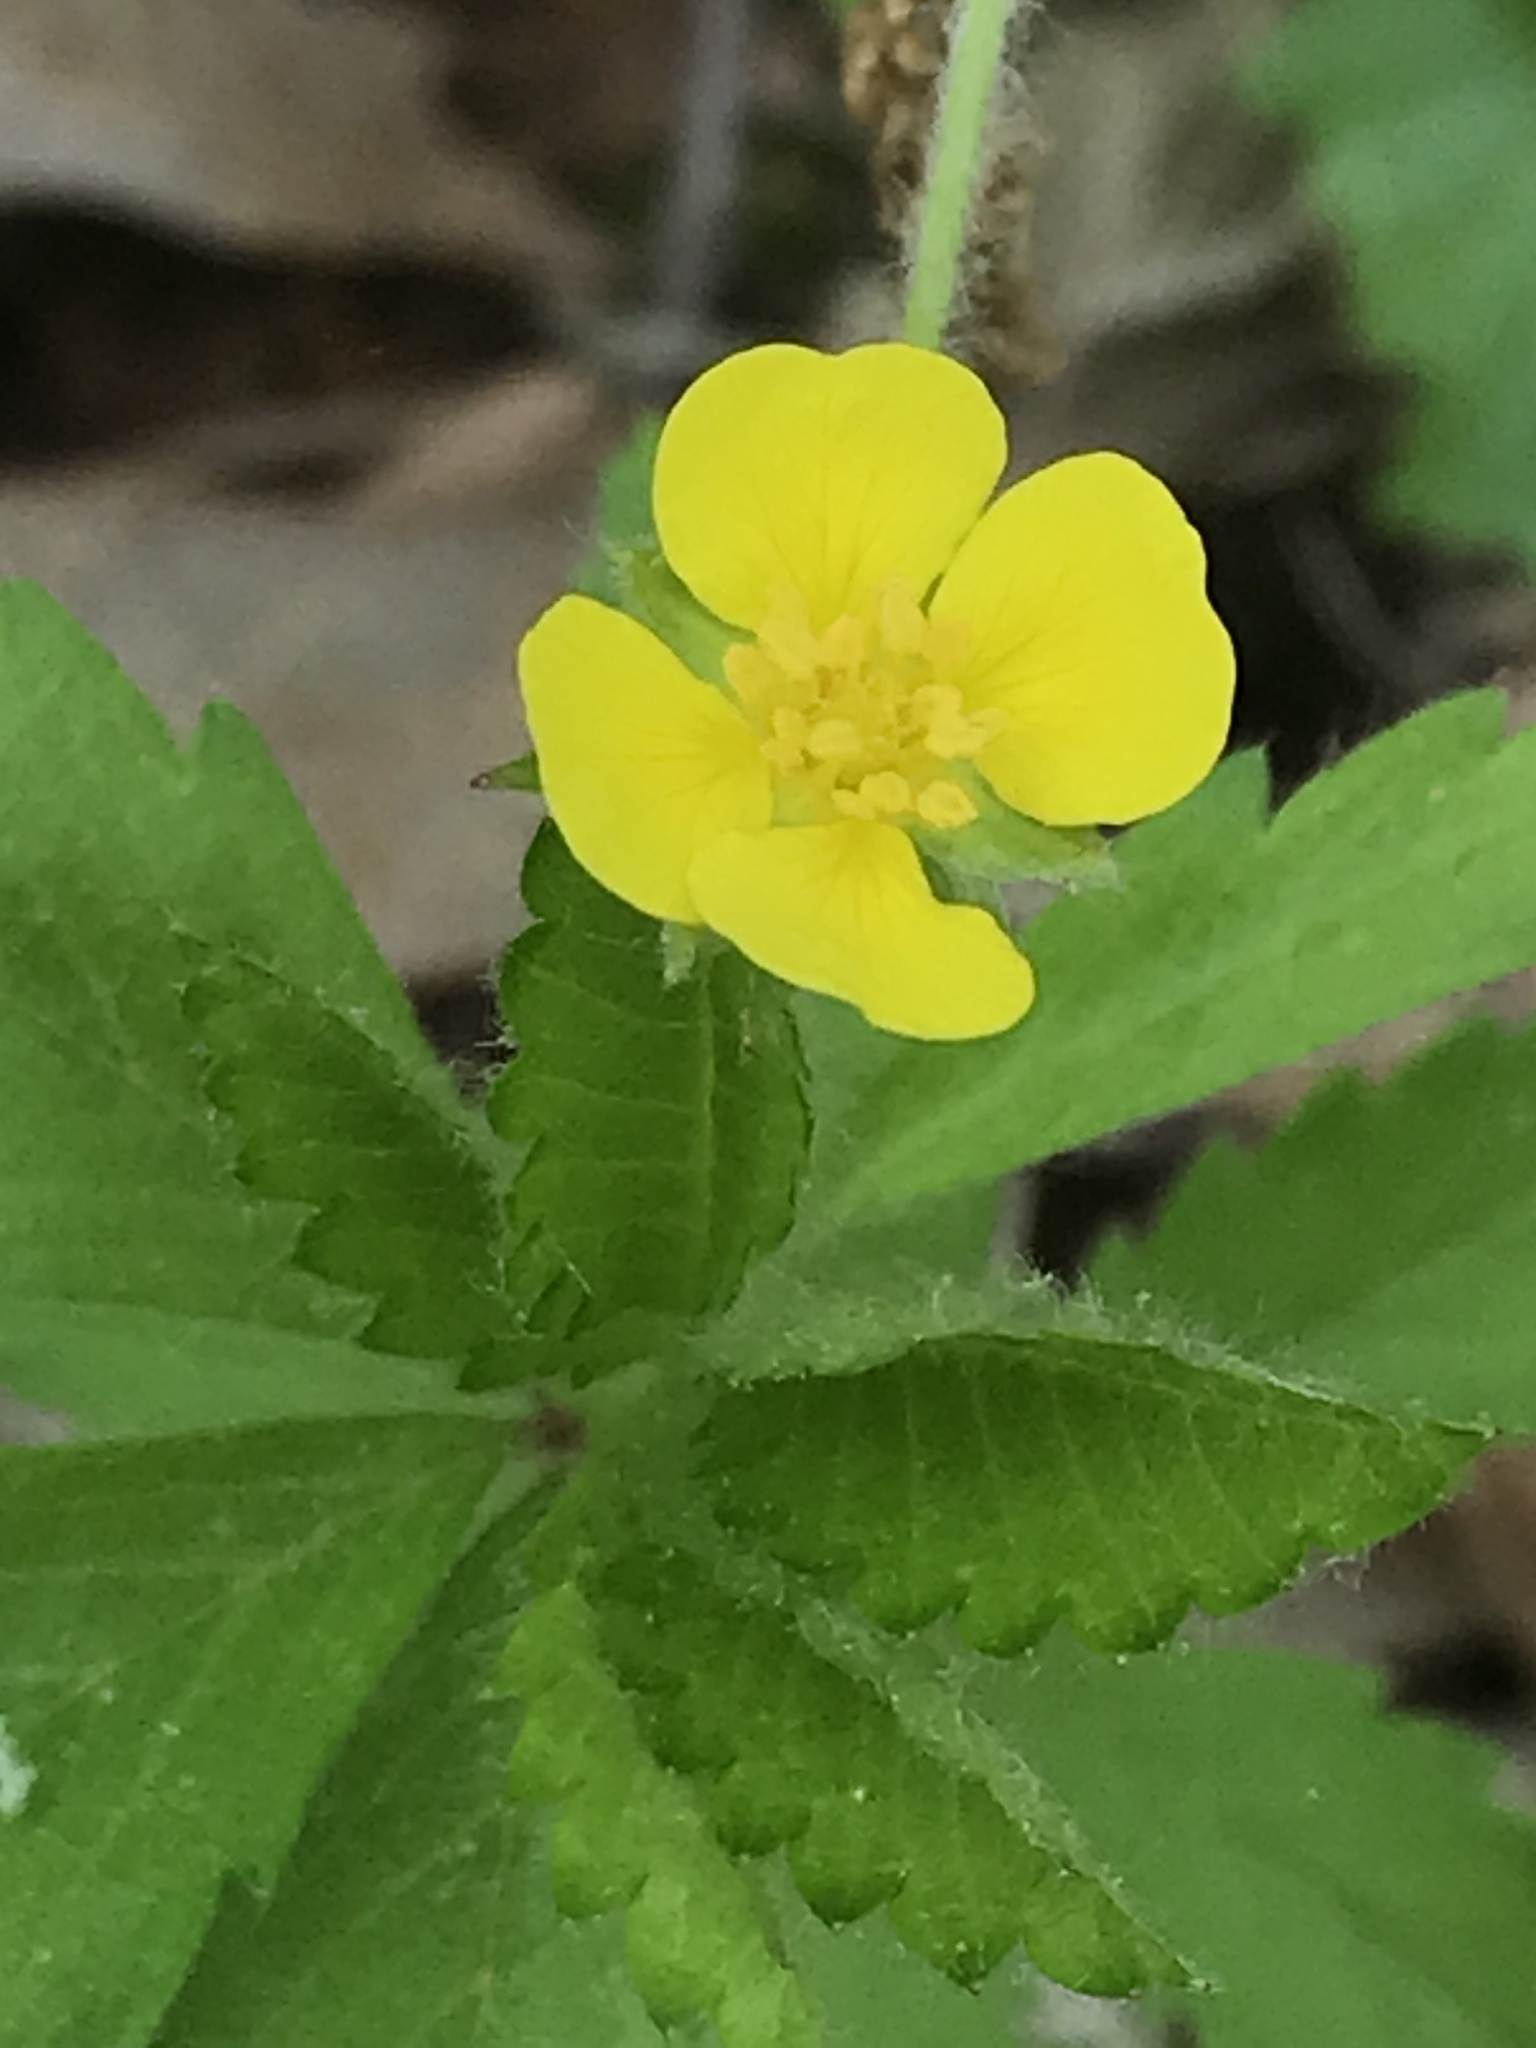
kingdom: Plantae
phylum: Tracheophyta
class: Magnoliopsida
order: Rosales
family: Rosaceae
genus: Potentilla
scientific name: Potentilla simplex
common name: Old field cinquefoil
